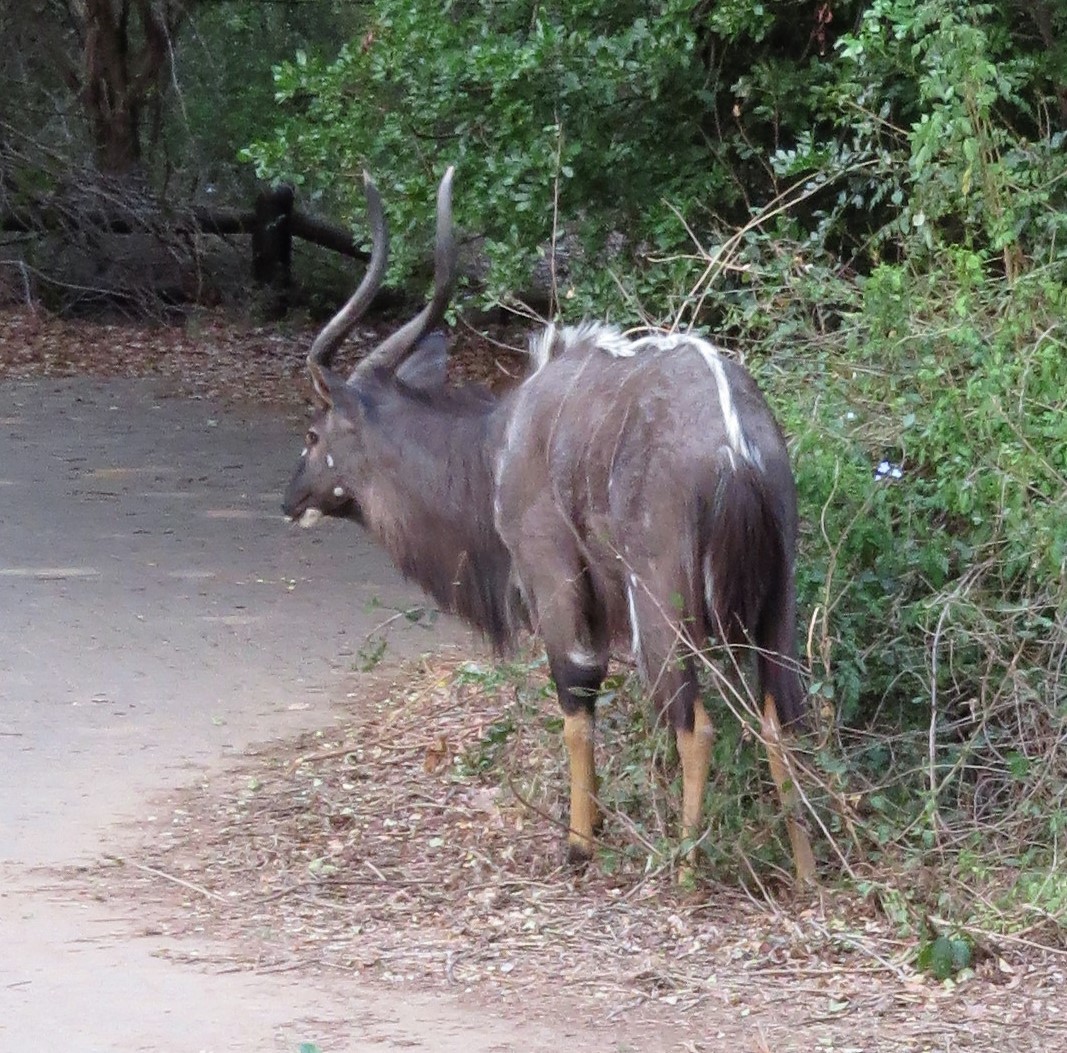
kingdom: Animalia
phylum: Chordata
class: Mammalia
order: Artiodactyla
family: Bovidae
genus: Tragelaphus
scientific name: Tragelaphus angasii
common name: Nyala
